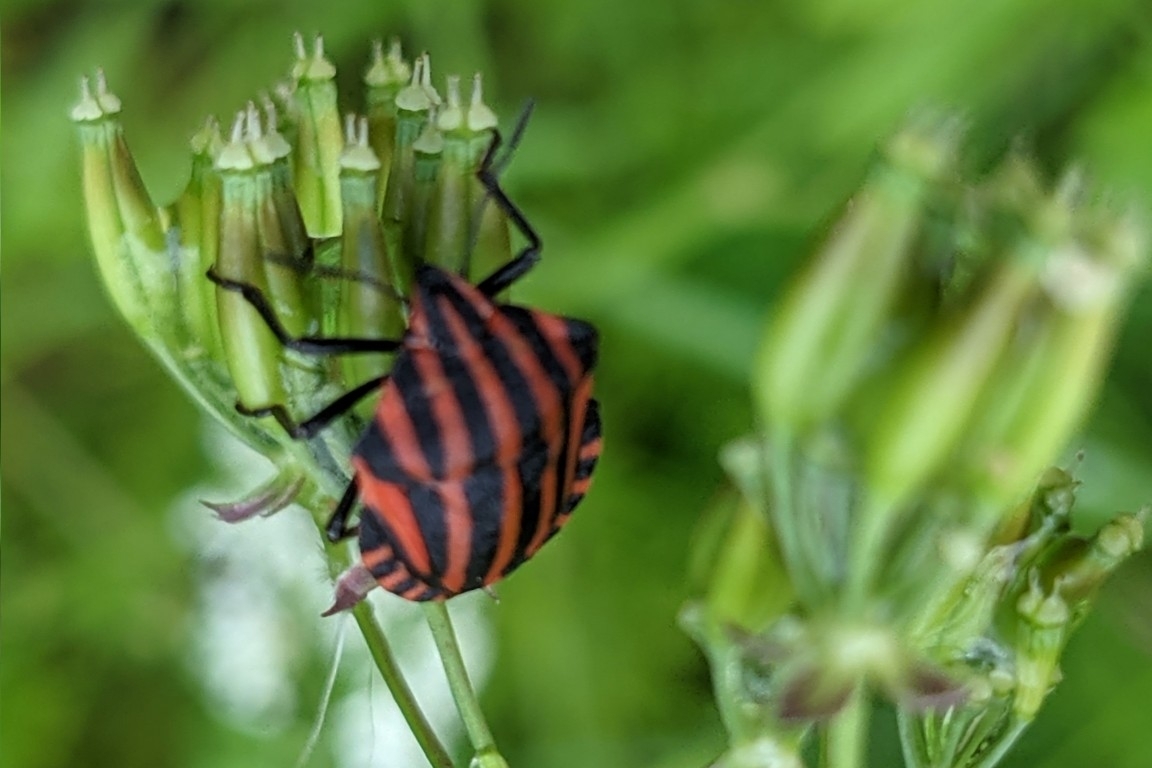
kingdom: Animalia
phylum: Arthropoda
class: Insecta
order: Hemiptera
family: Pentatomidae
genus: Graphosoma
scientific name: Graphosoma italicum
